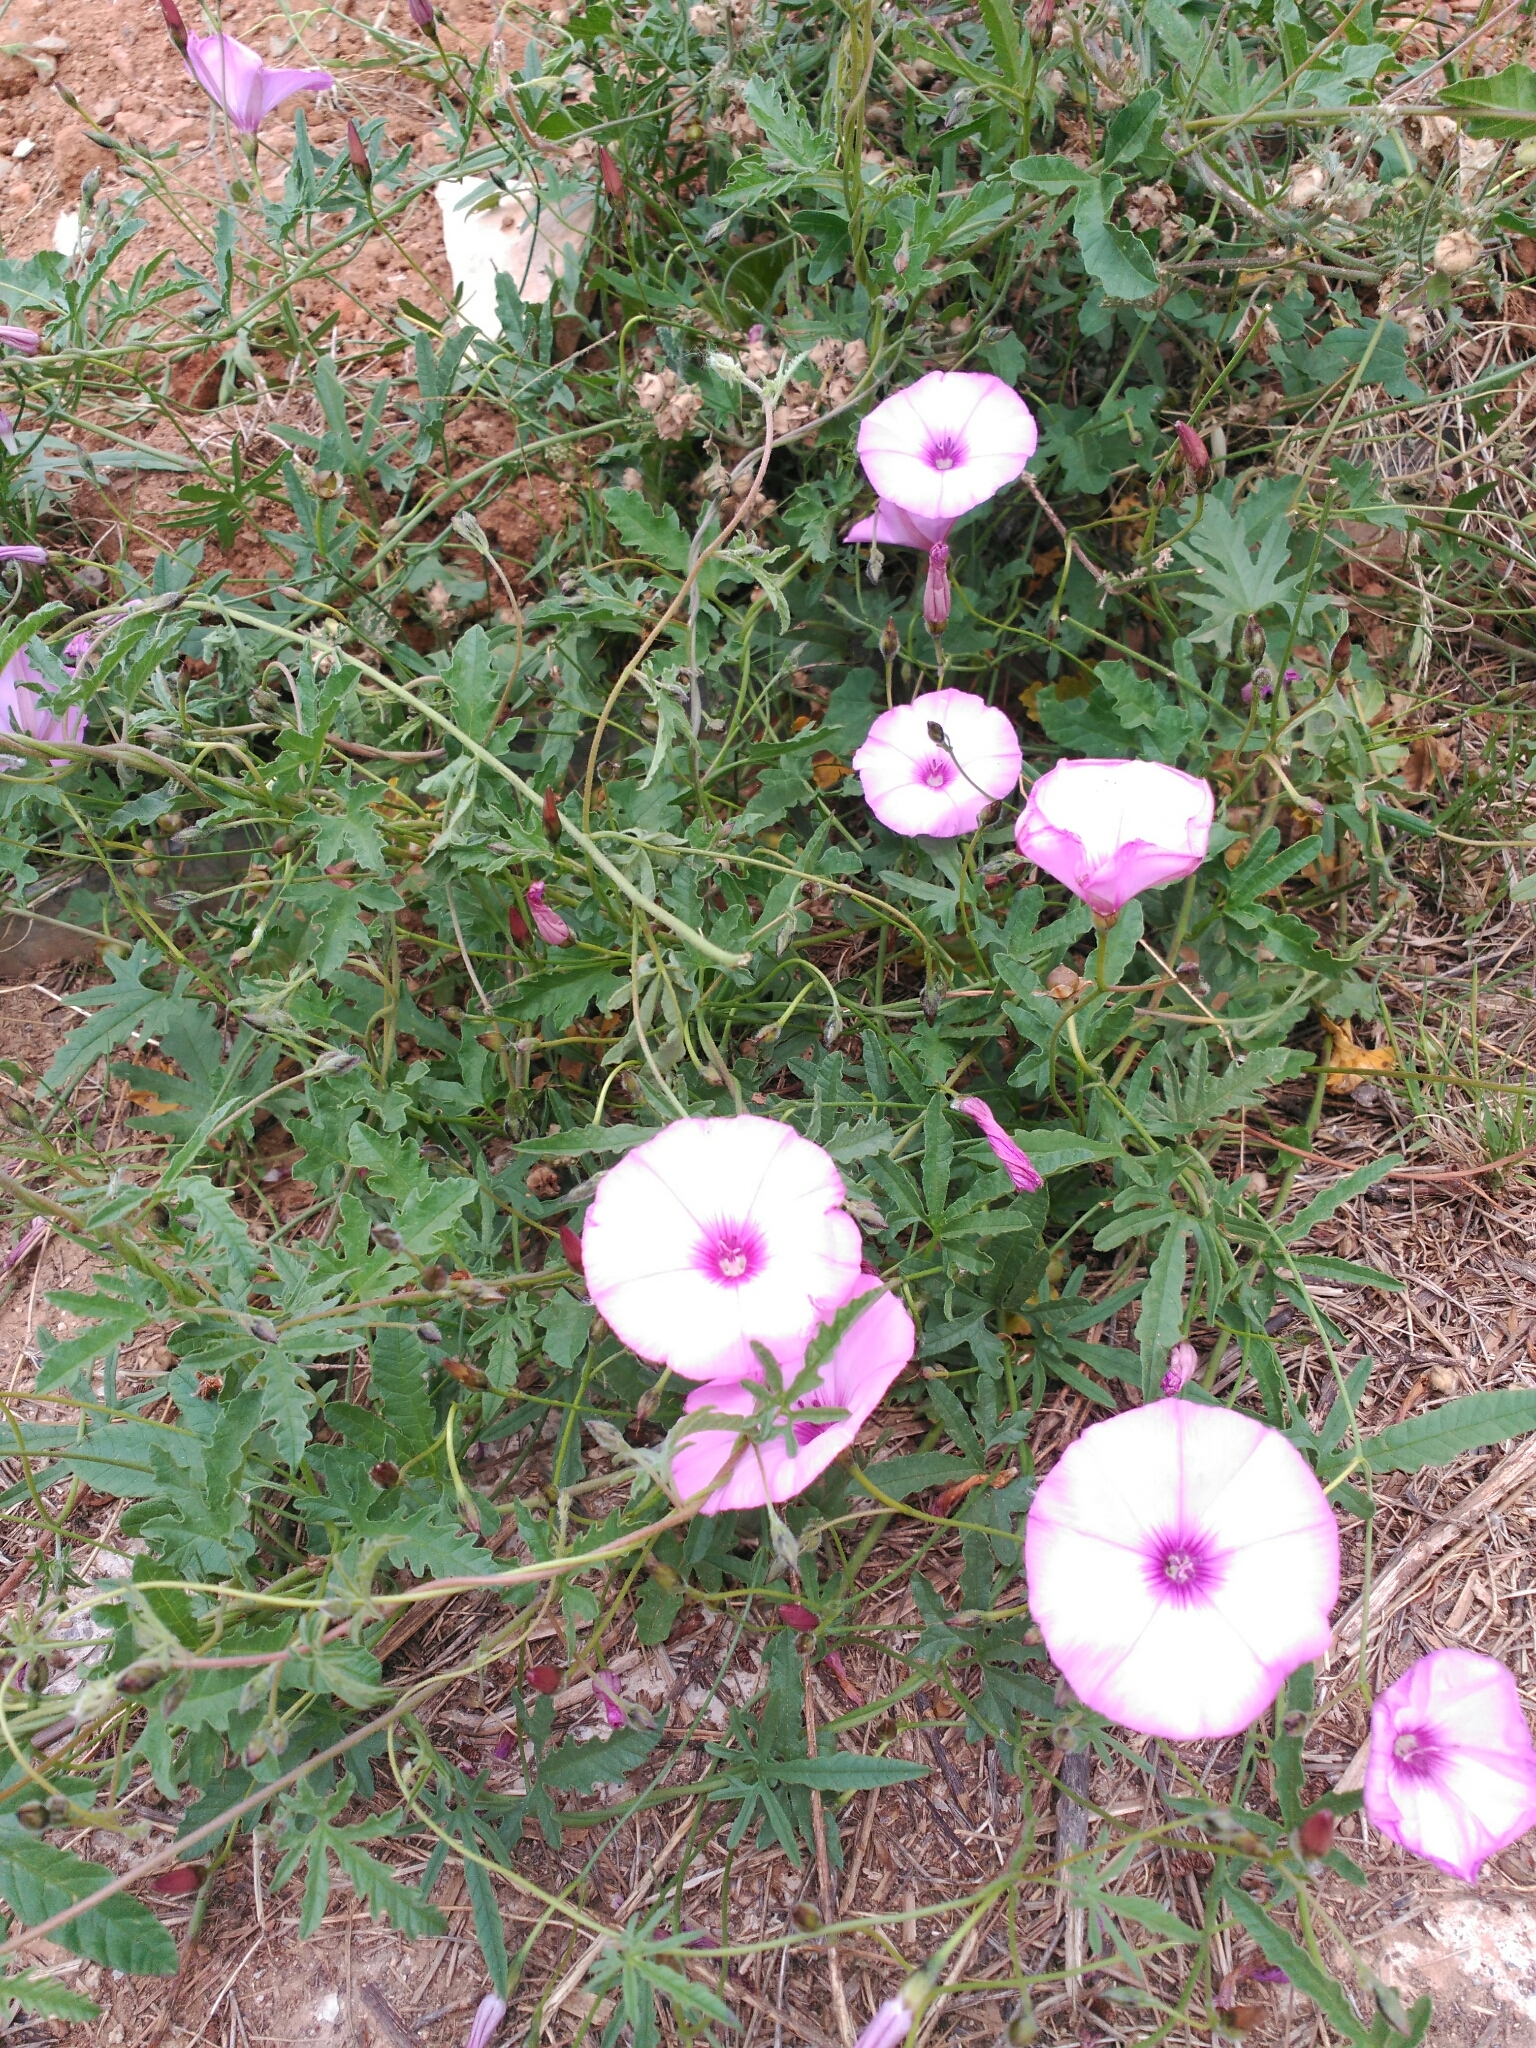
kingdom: Plantae
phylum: Tracheophyta
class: Magnoliopsida
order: Solanales
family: Convolvulaceae
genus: Convolvulus
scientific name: Convolvulus althaeoides
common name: Mallow bindweed
